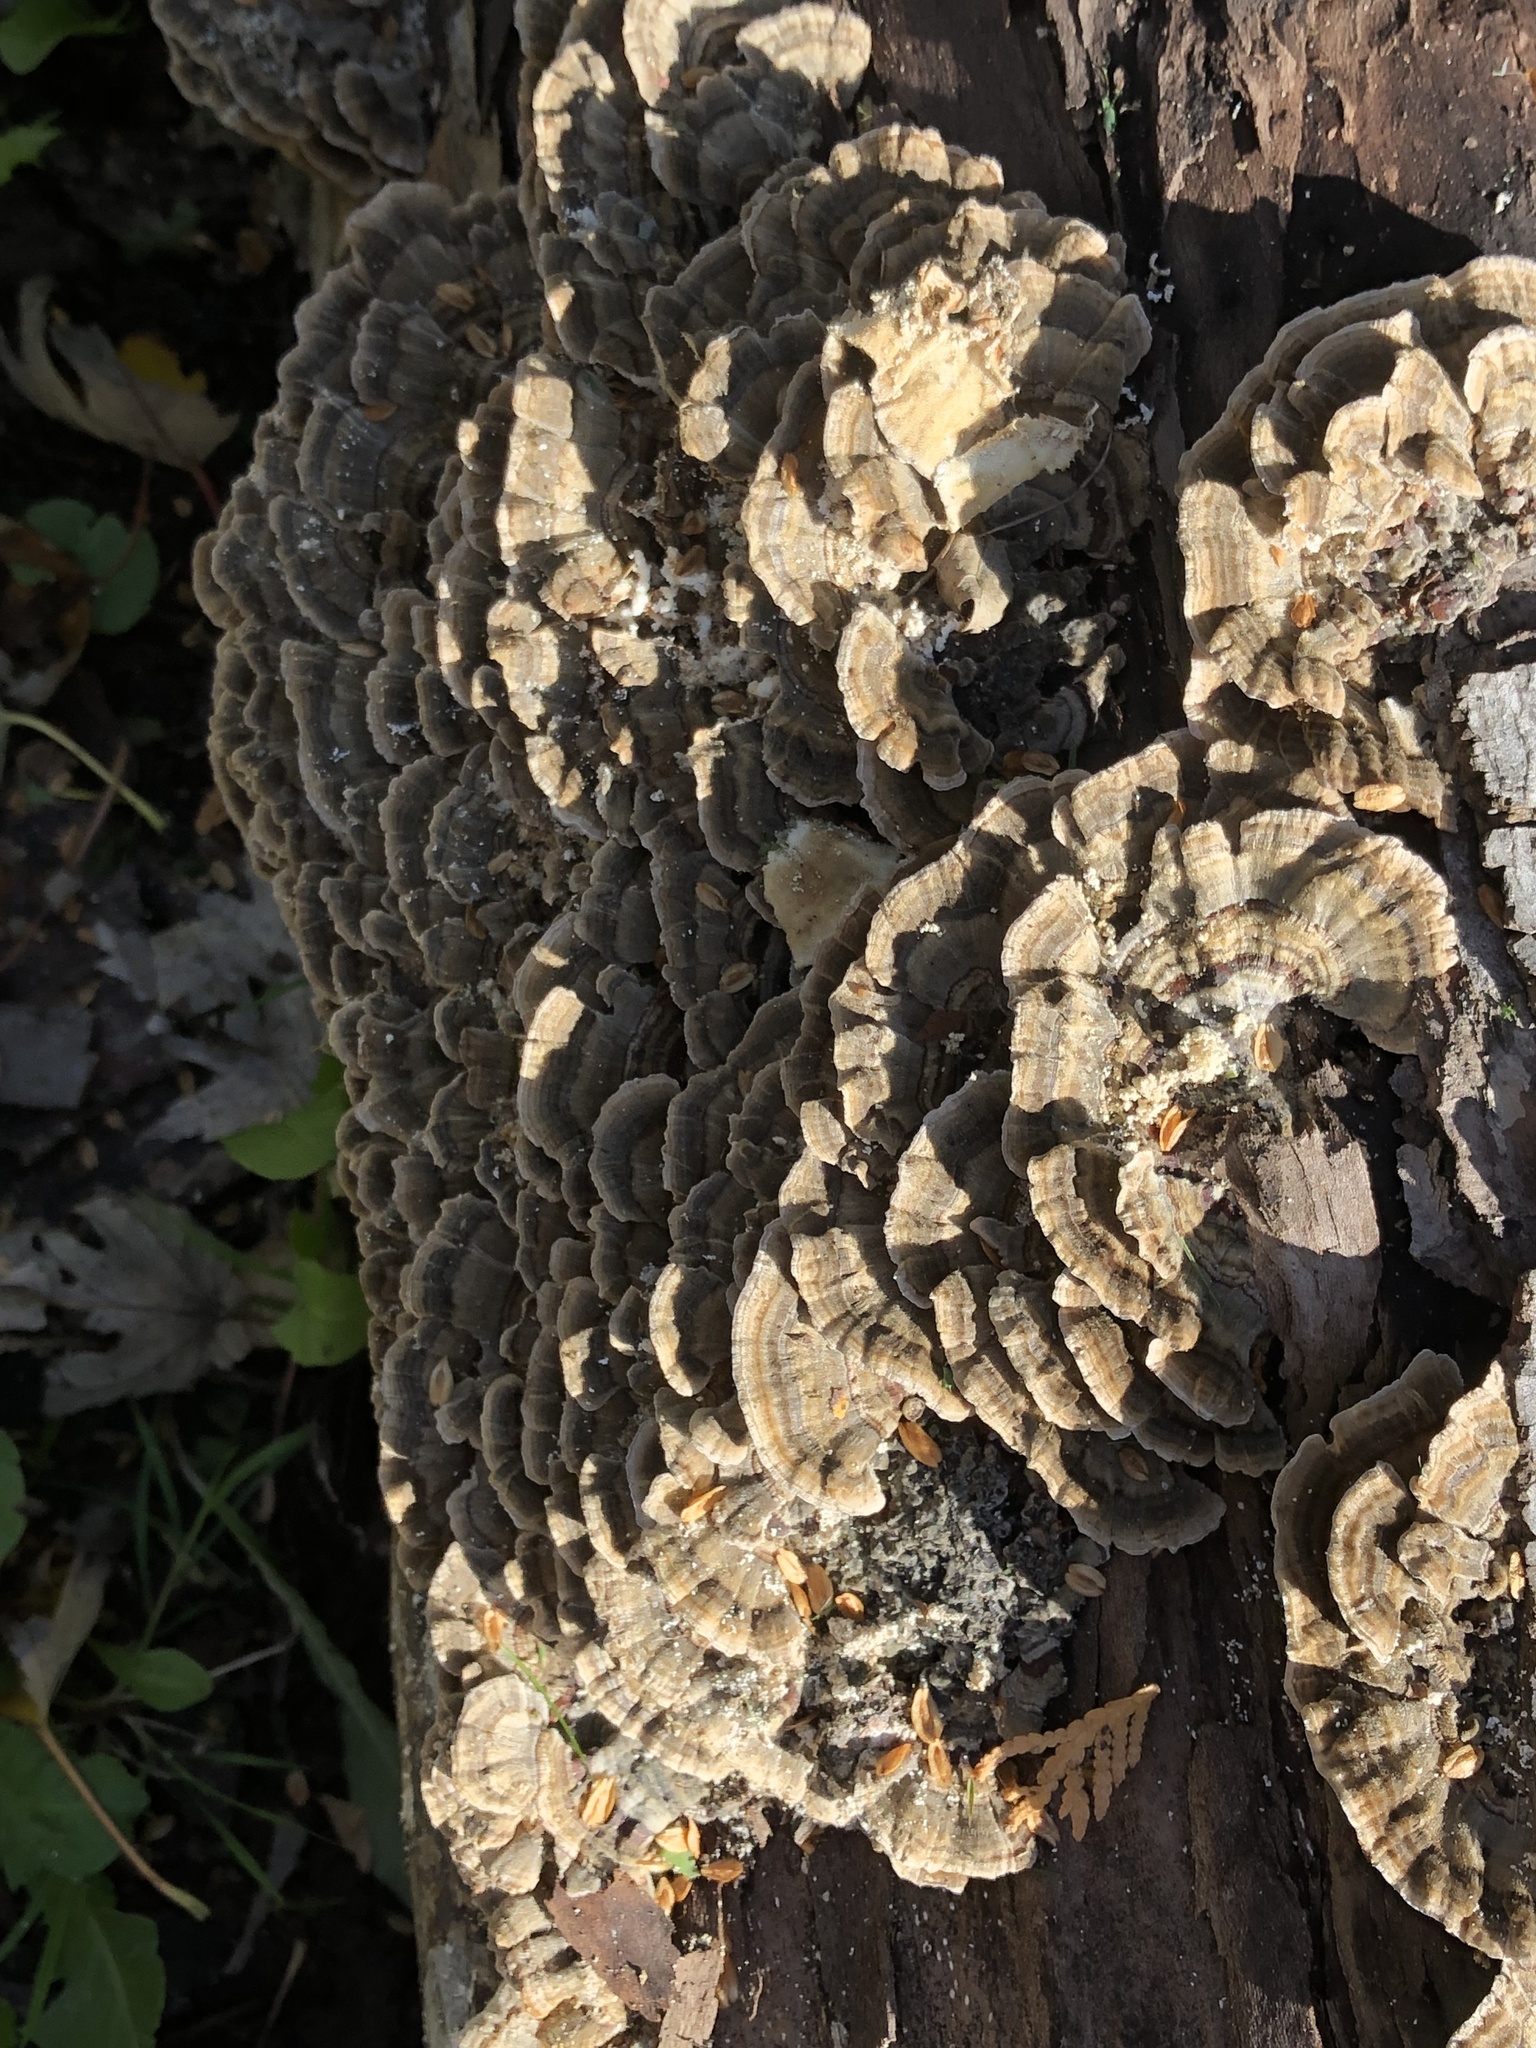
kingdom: Fungi
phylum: Basidiomycota
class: Agaricomycetes
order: Polyporales
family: Polyporaceae
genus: Trametes
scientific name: Trametes versicolor
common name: Turkeytail
